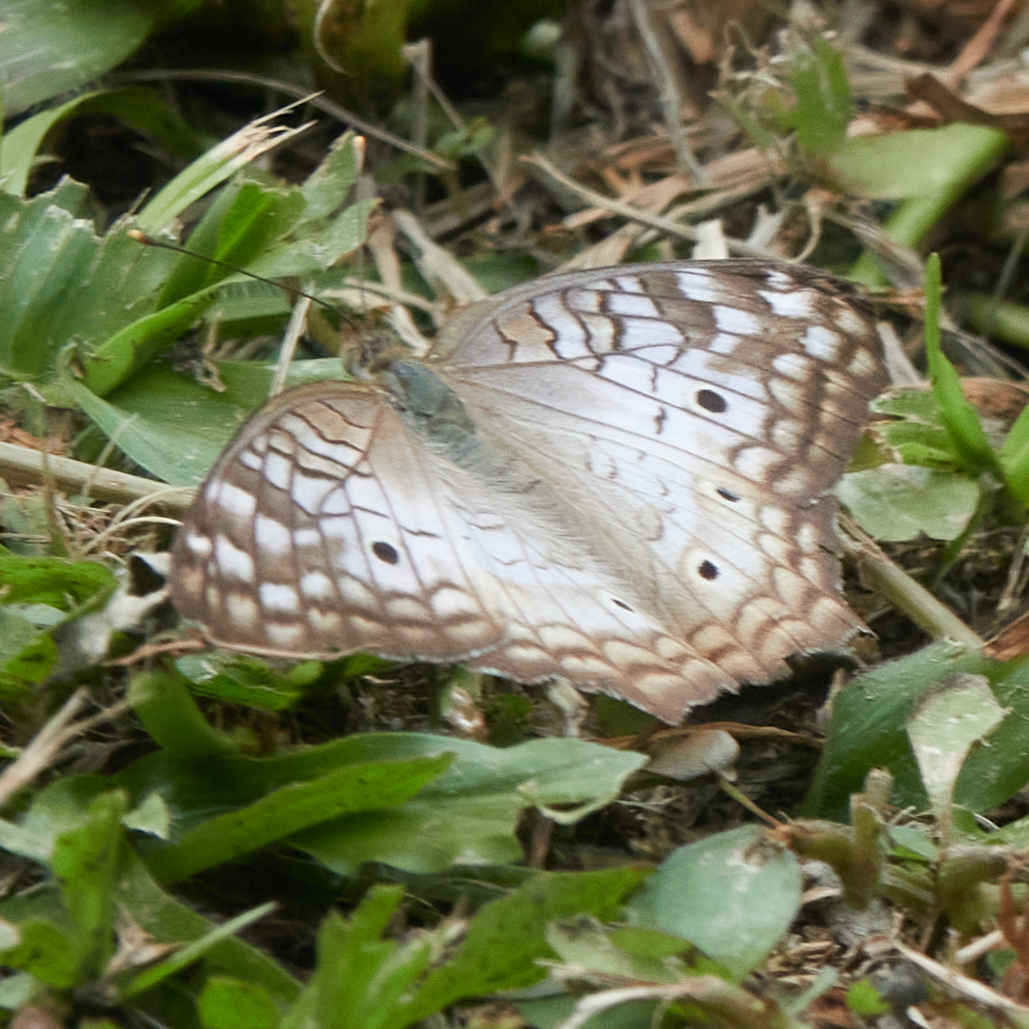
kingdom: Animalia
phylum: Arthropoda
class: Insecta
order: Lepidoptera
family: Nymphalidae
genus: Anartia
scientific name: Anartia jatrophae
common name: White peacock
